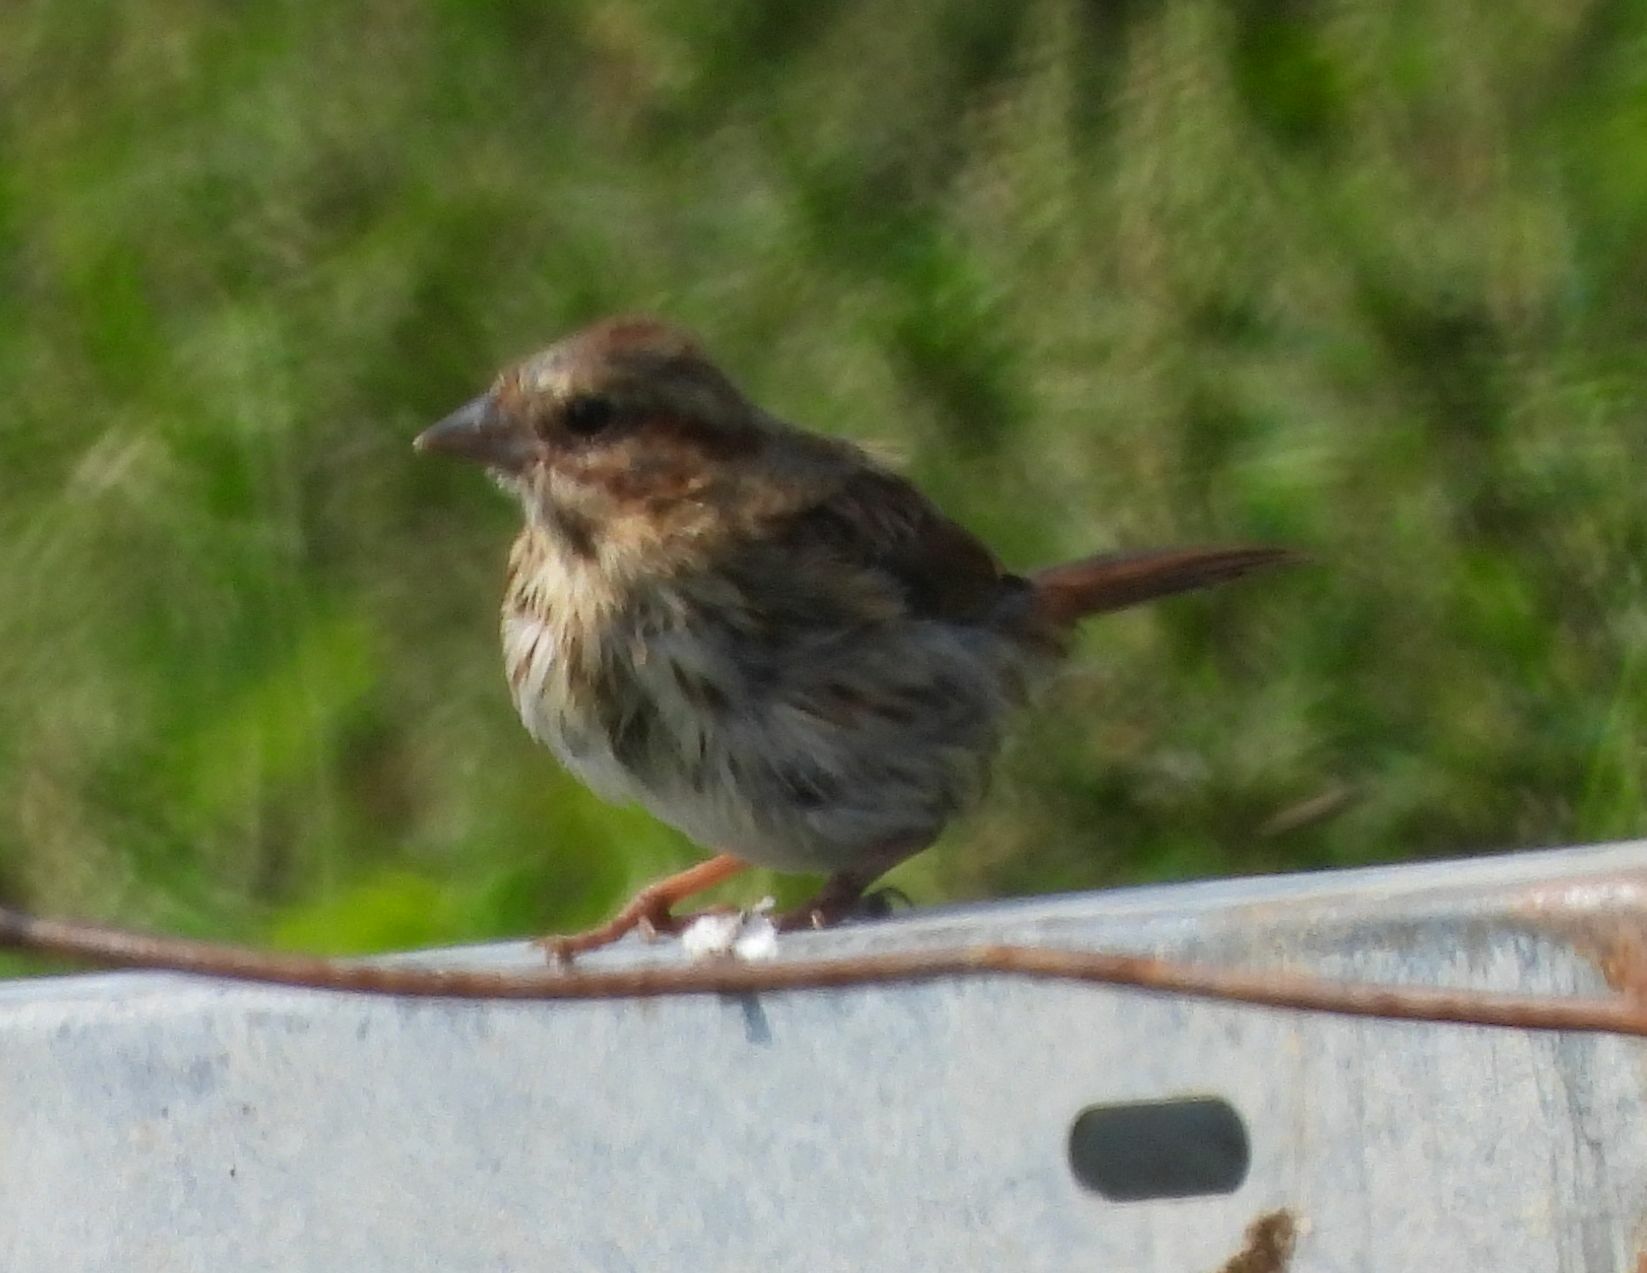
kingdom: Animalia
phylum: Chordata
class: Aves
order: Passeriformes
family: Passerellidae
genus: Melospiza
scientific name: Melospiza melodia
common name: Song sparrow
